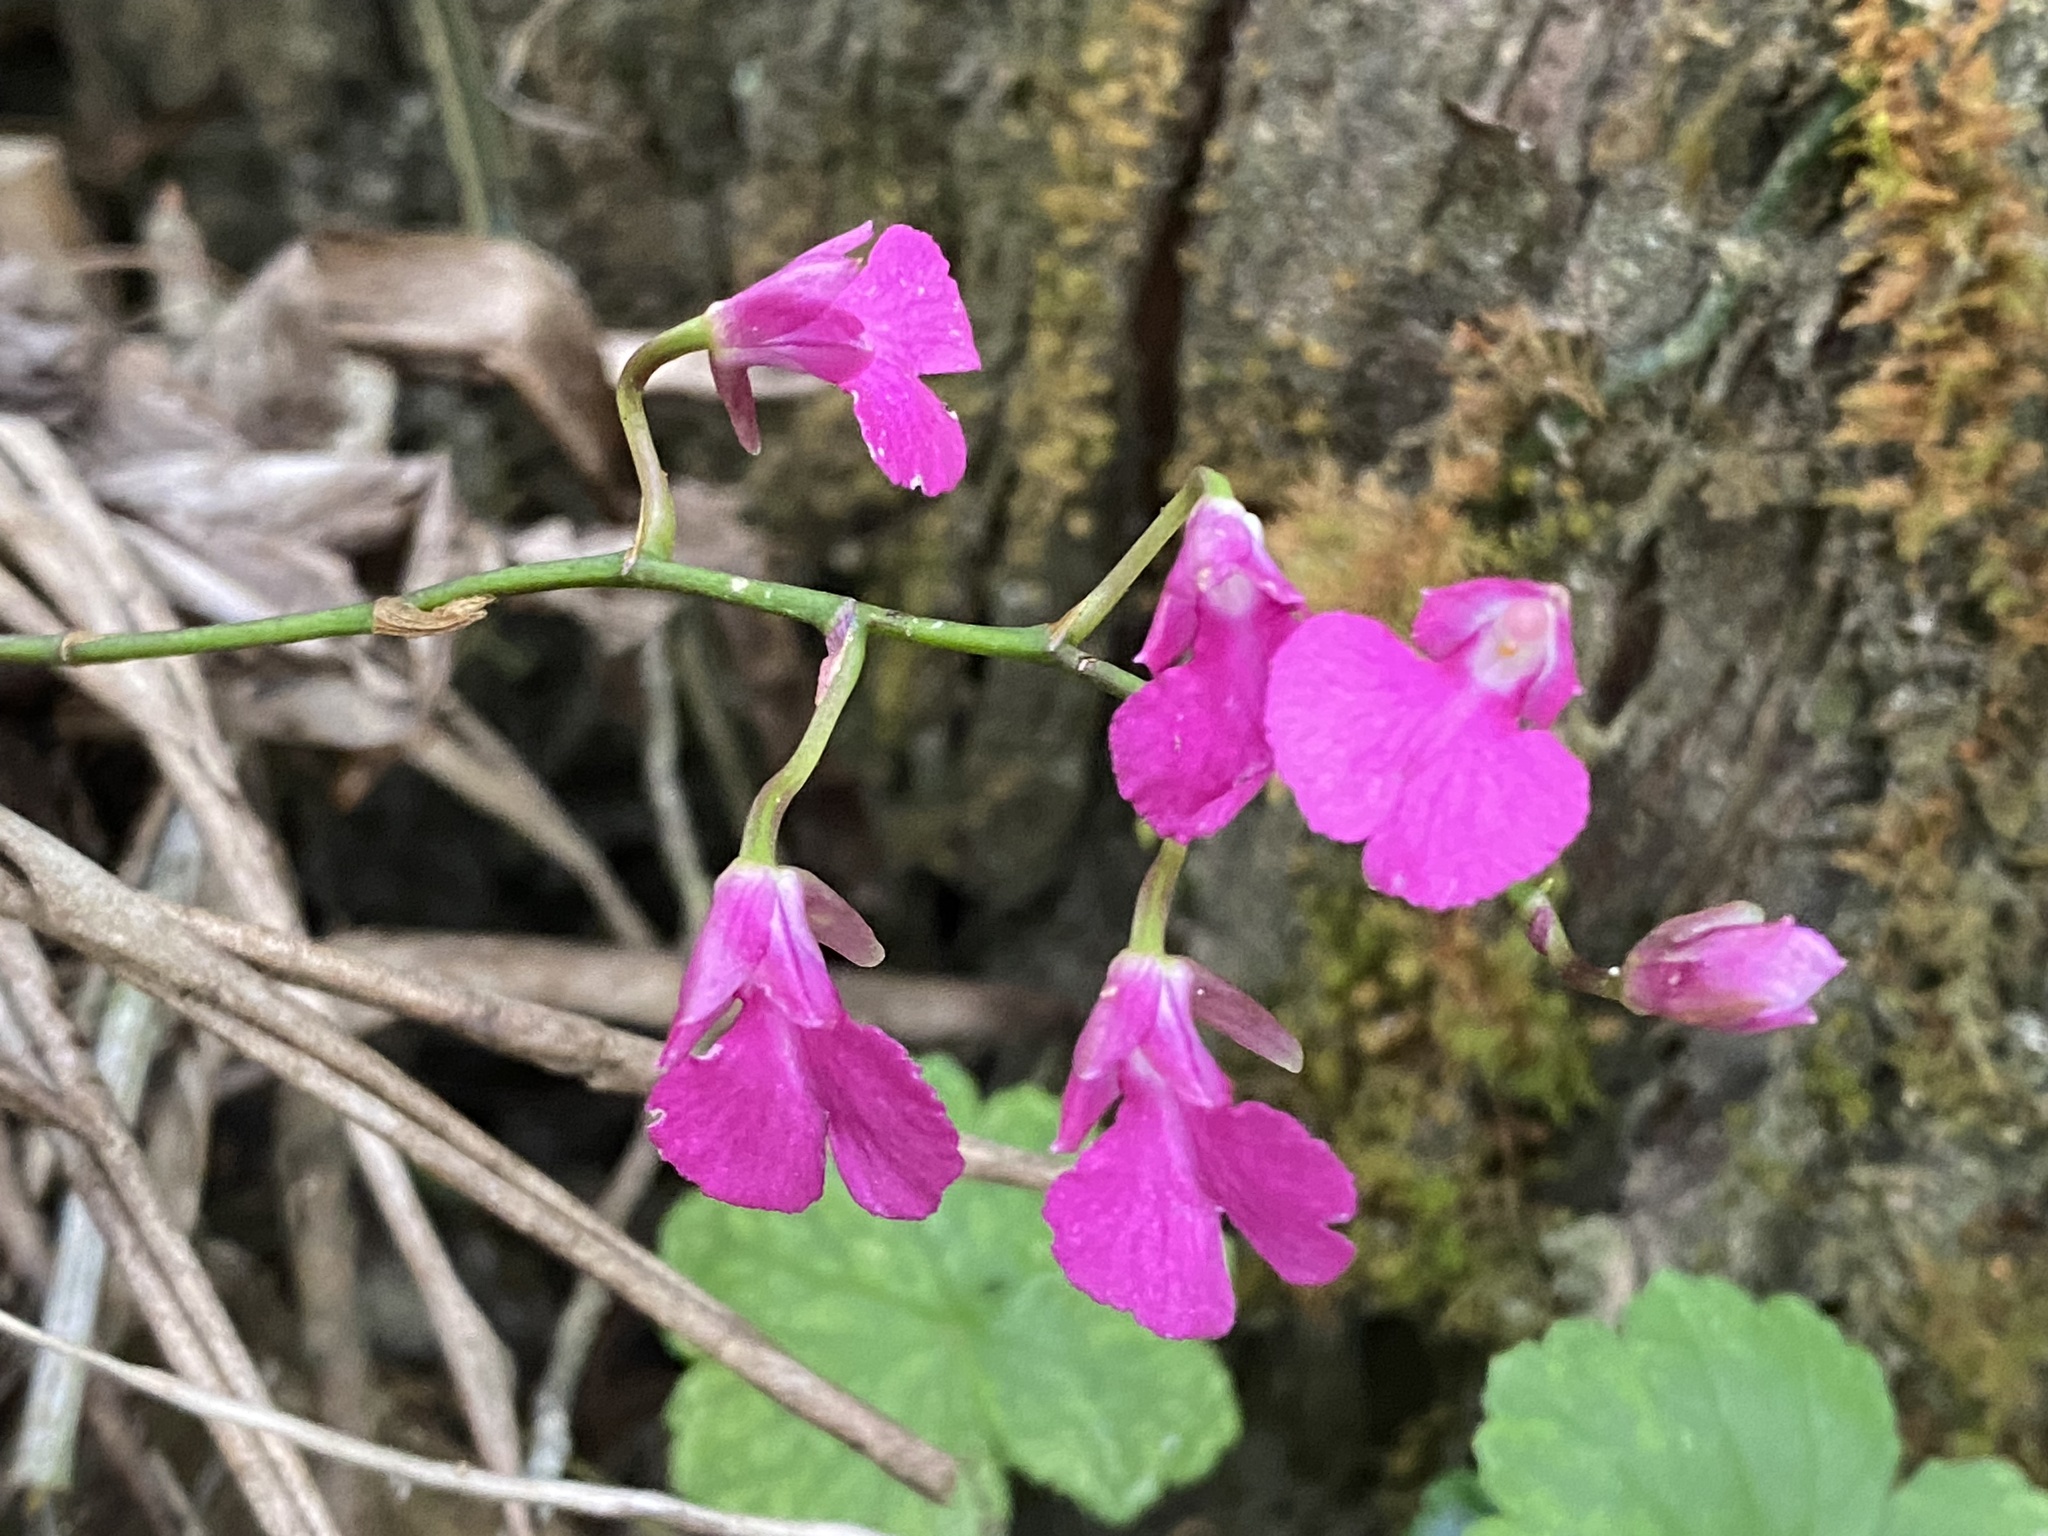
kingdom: Plantae
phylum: Tracheophyta
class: Liliopsida
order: Asparagales
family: Orchidaceae
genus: Comparettia
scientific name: Comparettia falcata
